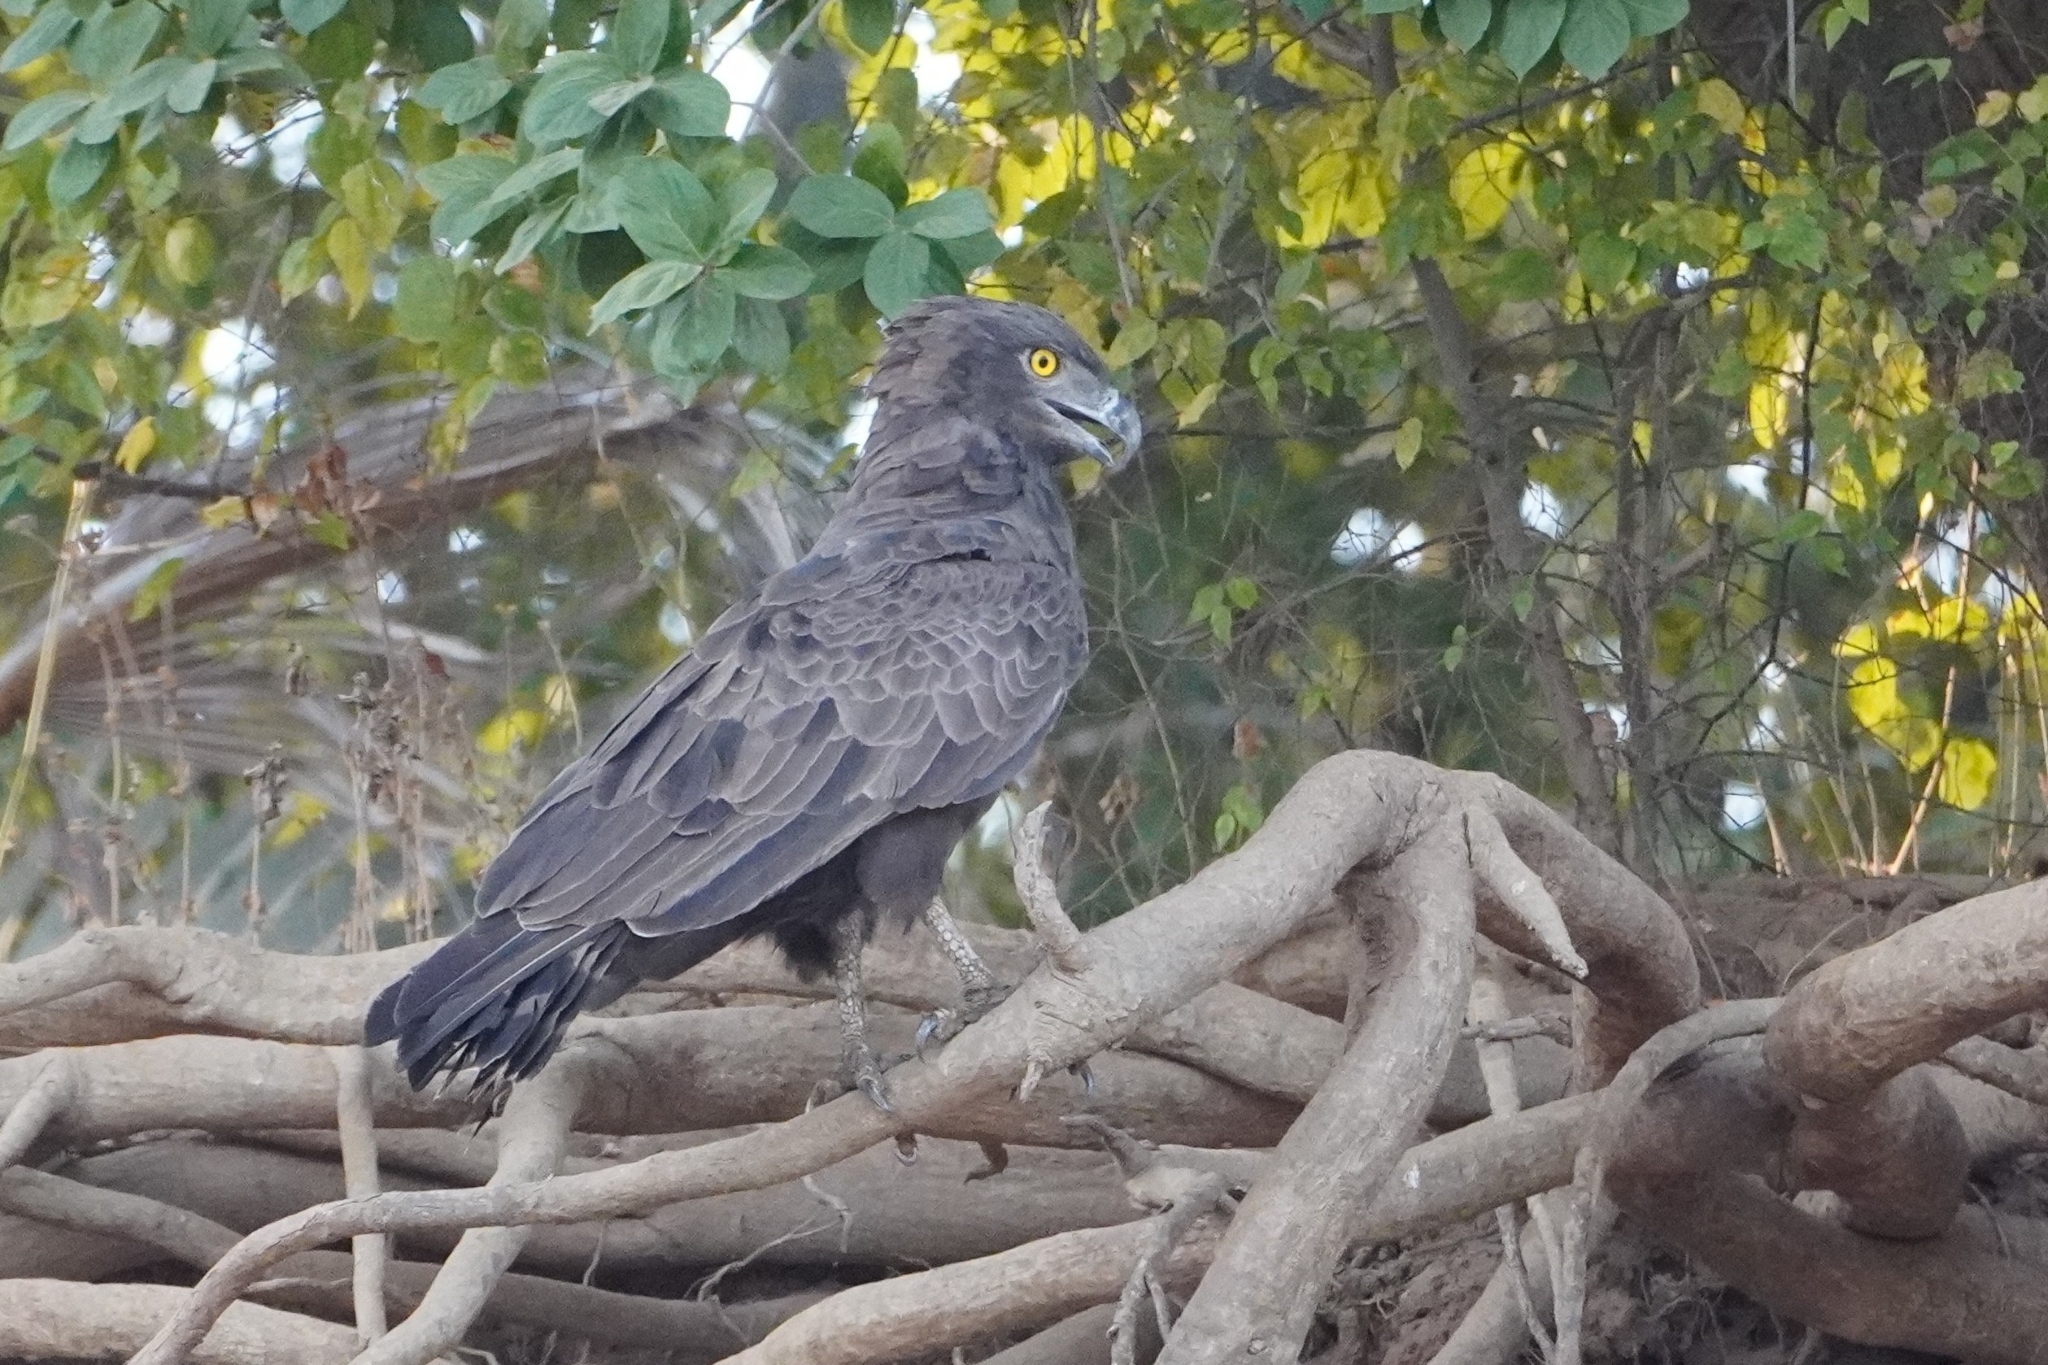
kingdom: Animalia
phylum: Chordata
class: Aves
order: Accipitriformes
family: Accipitridae
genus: Circaetus
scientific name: Circaetus cinereus
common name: Brown snake eagle
